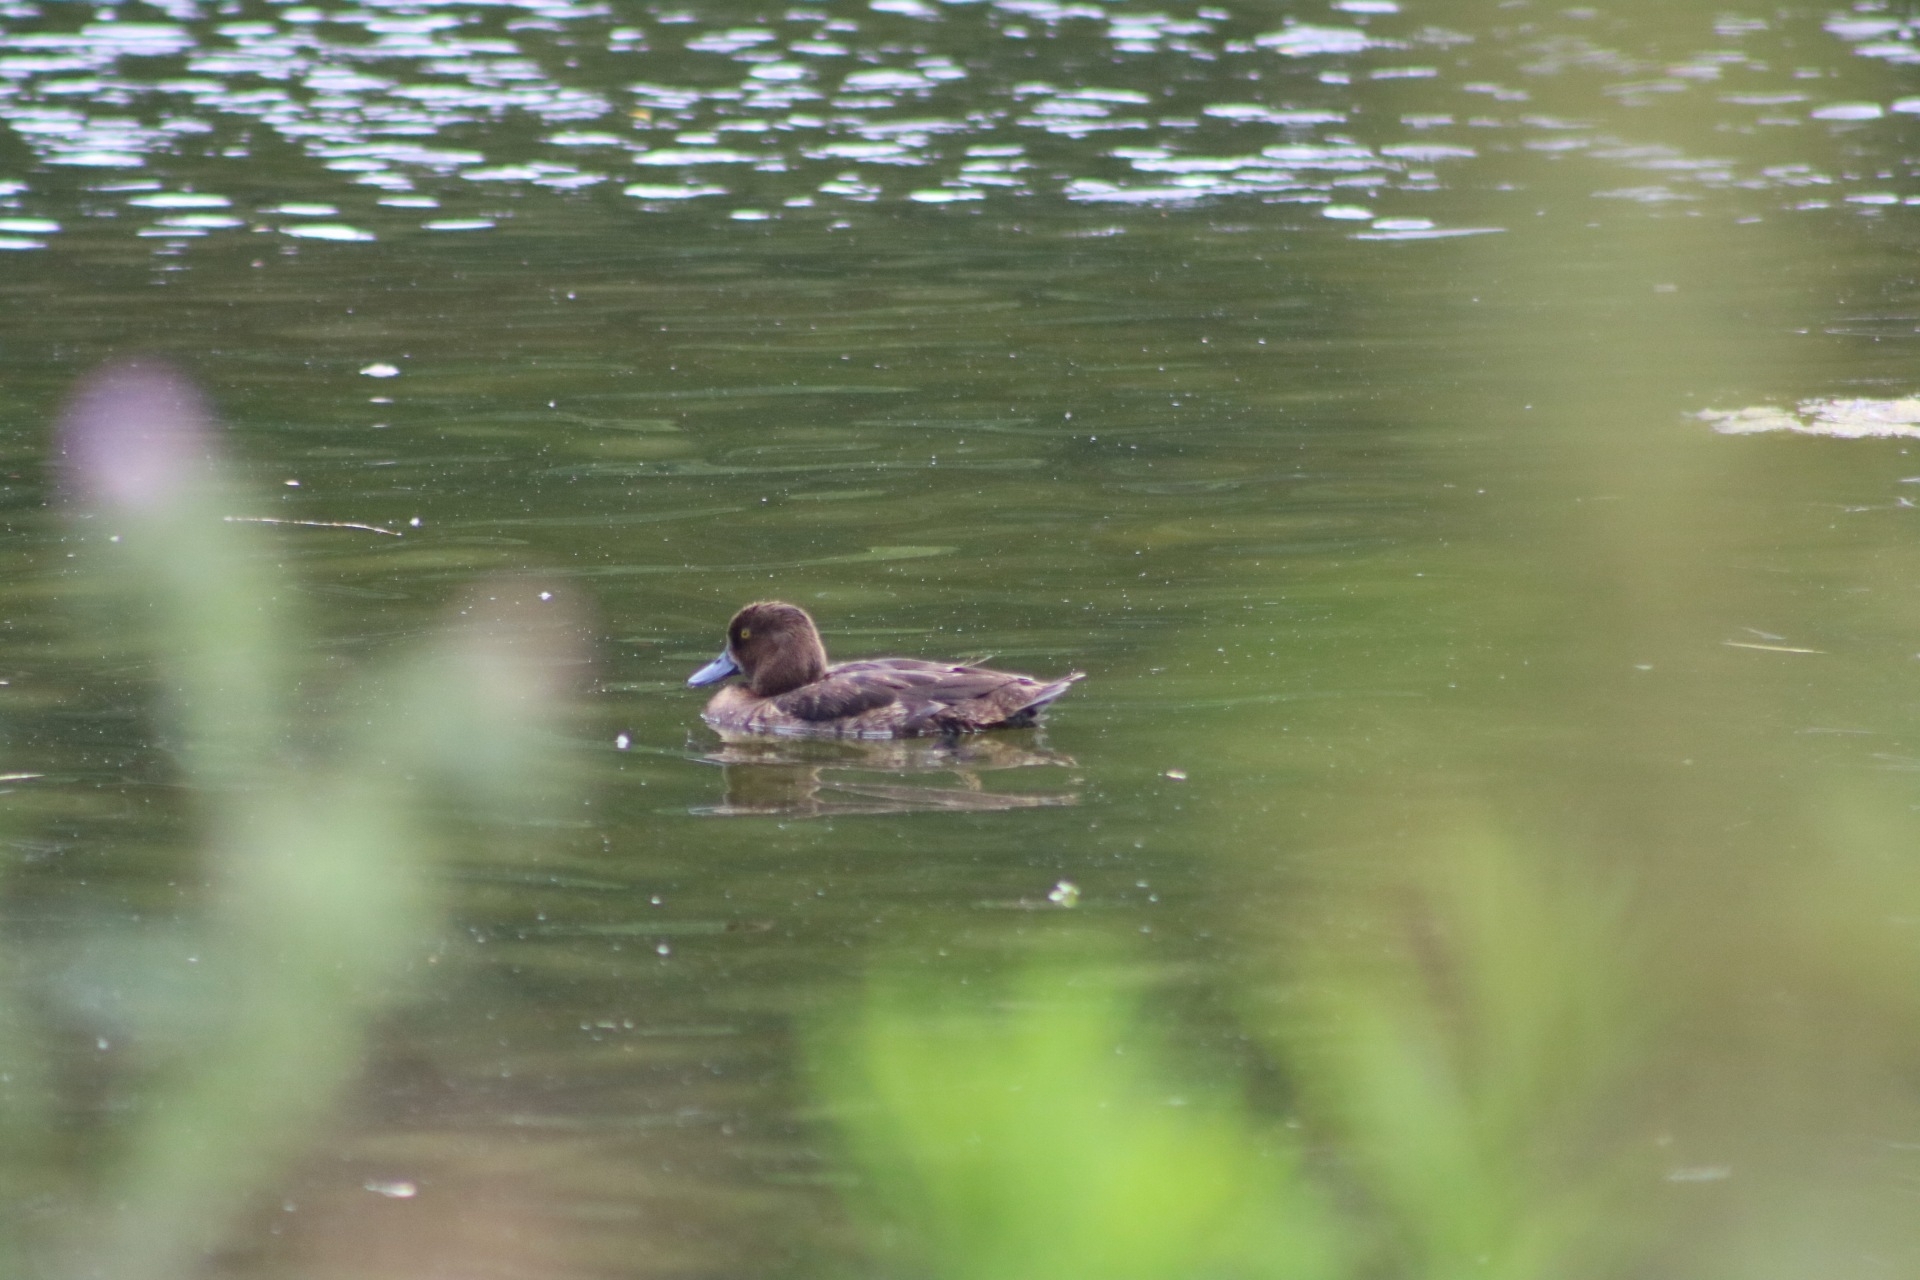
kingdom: Animalia
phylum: Chordata
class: Aves
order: Anseriformes
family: Anatidae
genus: Aythya
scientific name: Aythya fuligula
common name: Tufted duck
